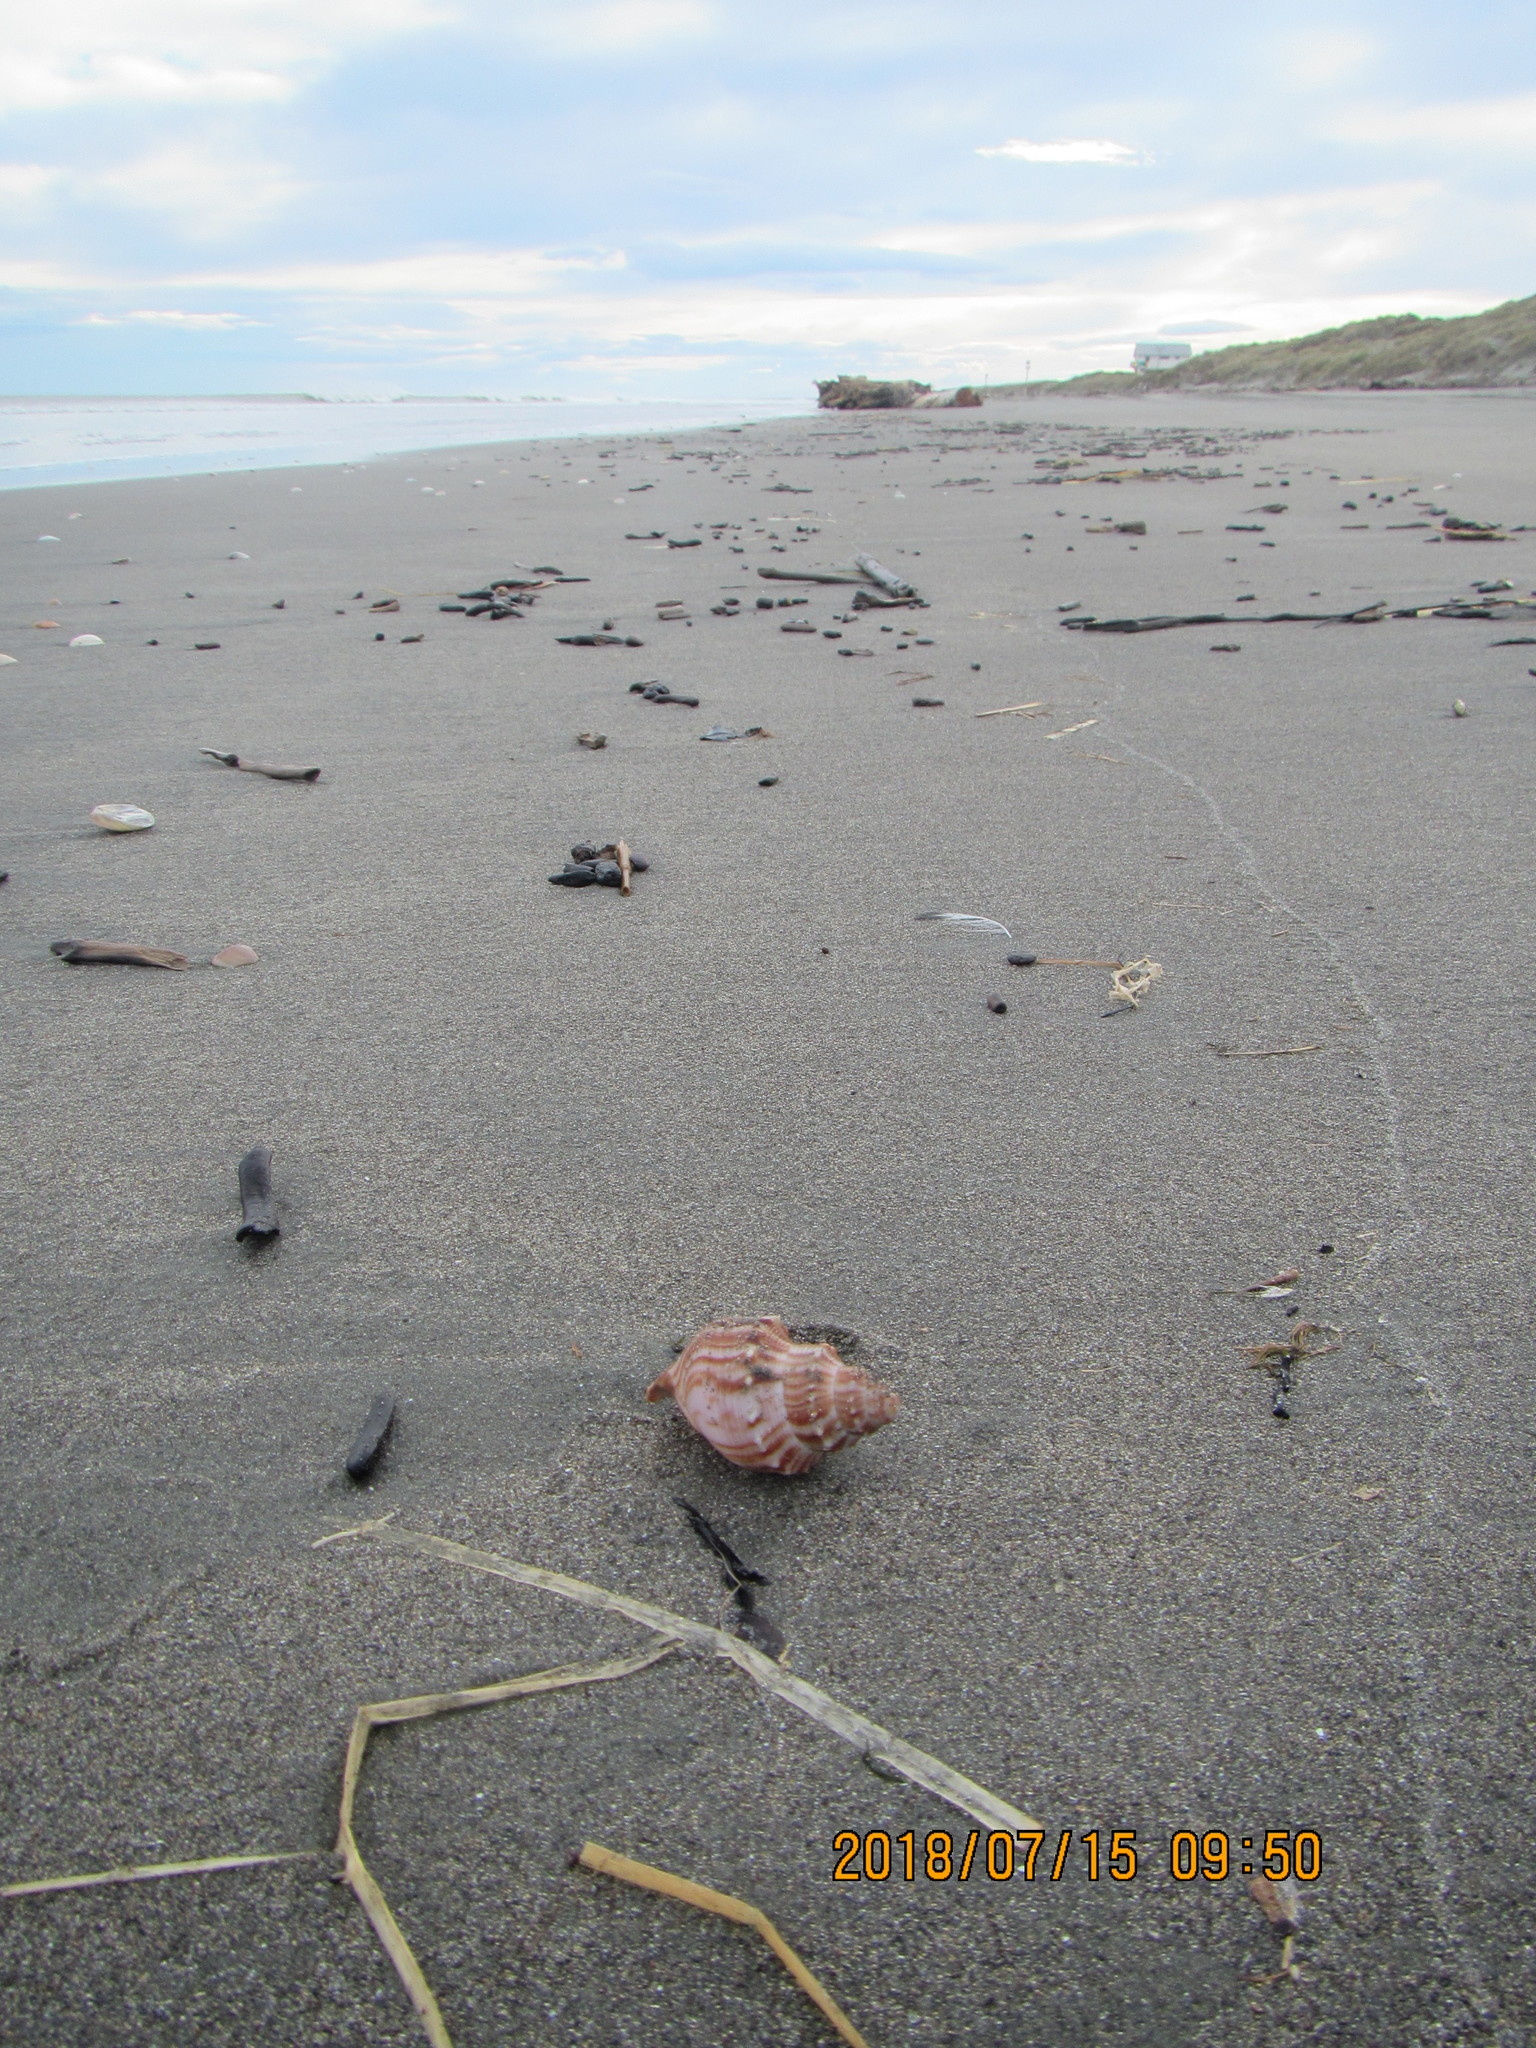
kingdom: Animalia
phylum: Mollusca
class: Gastropoda
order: Littorinimorpha
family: Struthiolariidae
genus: Struthiolaria
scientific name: Struthiolaria papulosa
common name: Large ostrich foot
